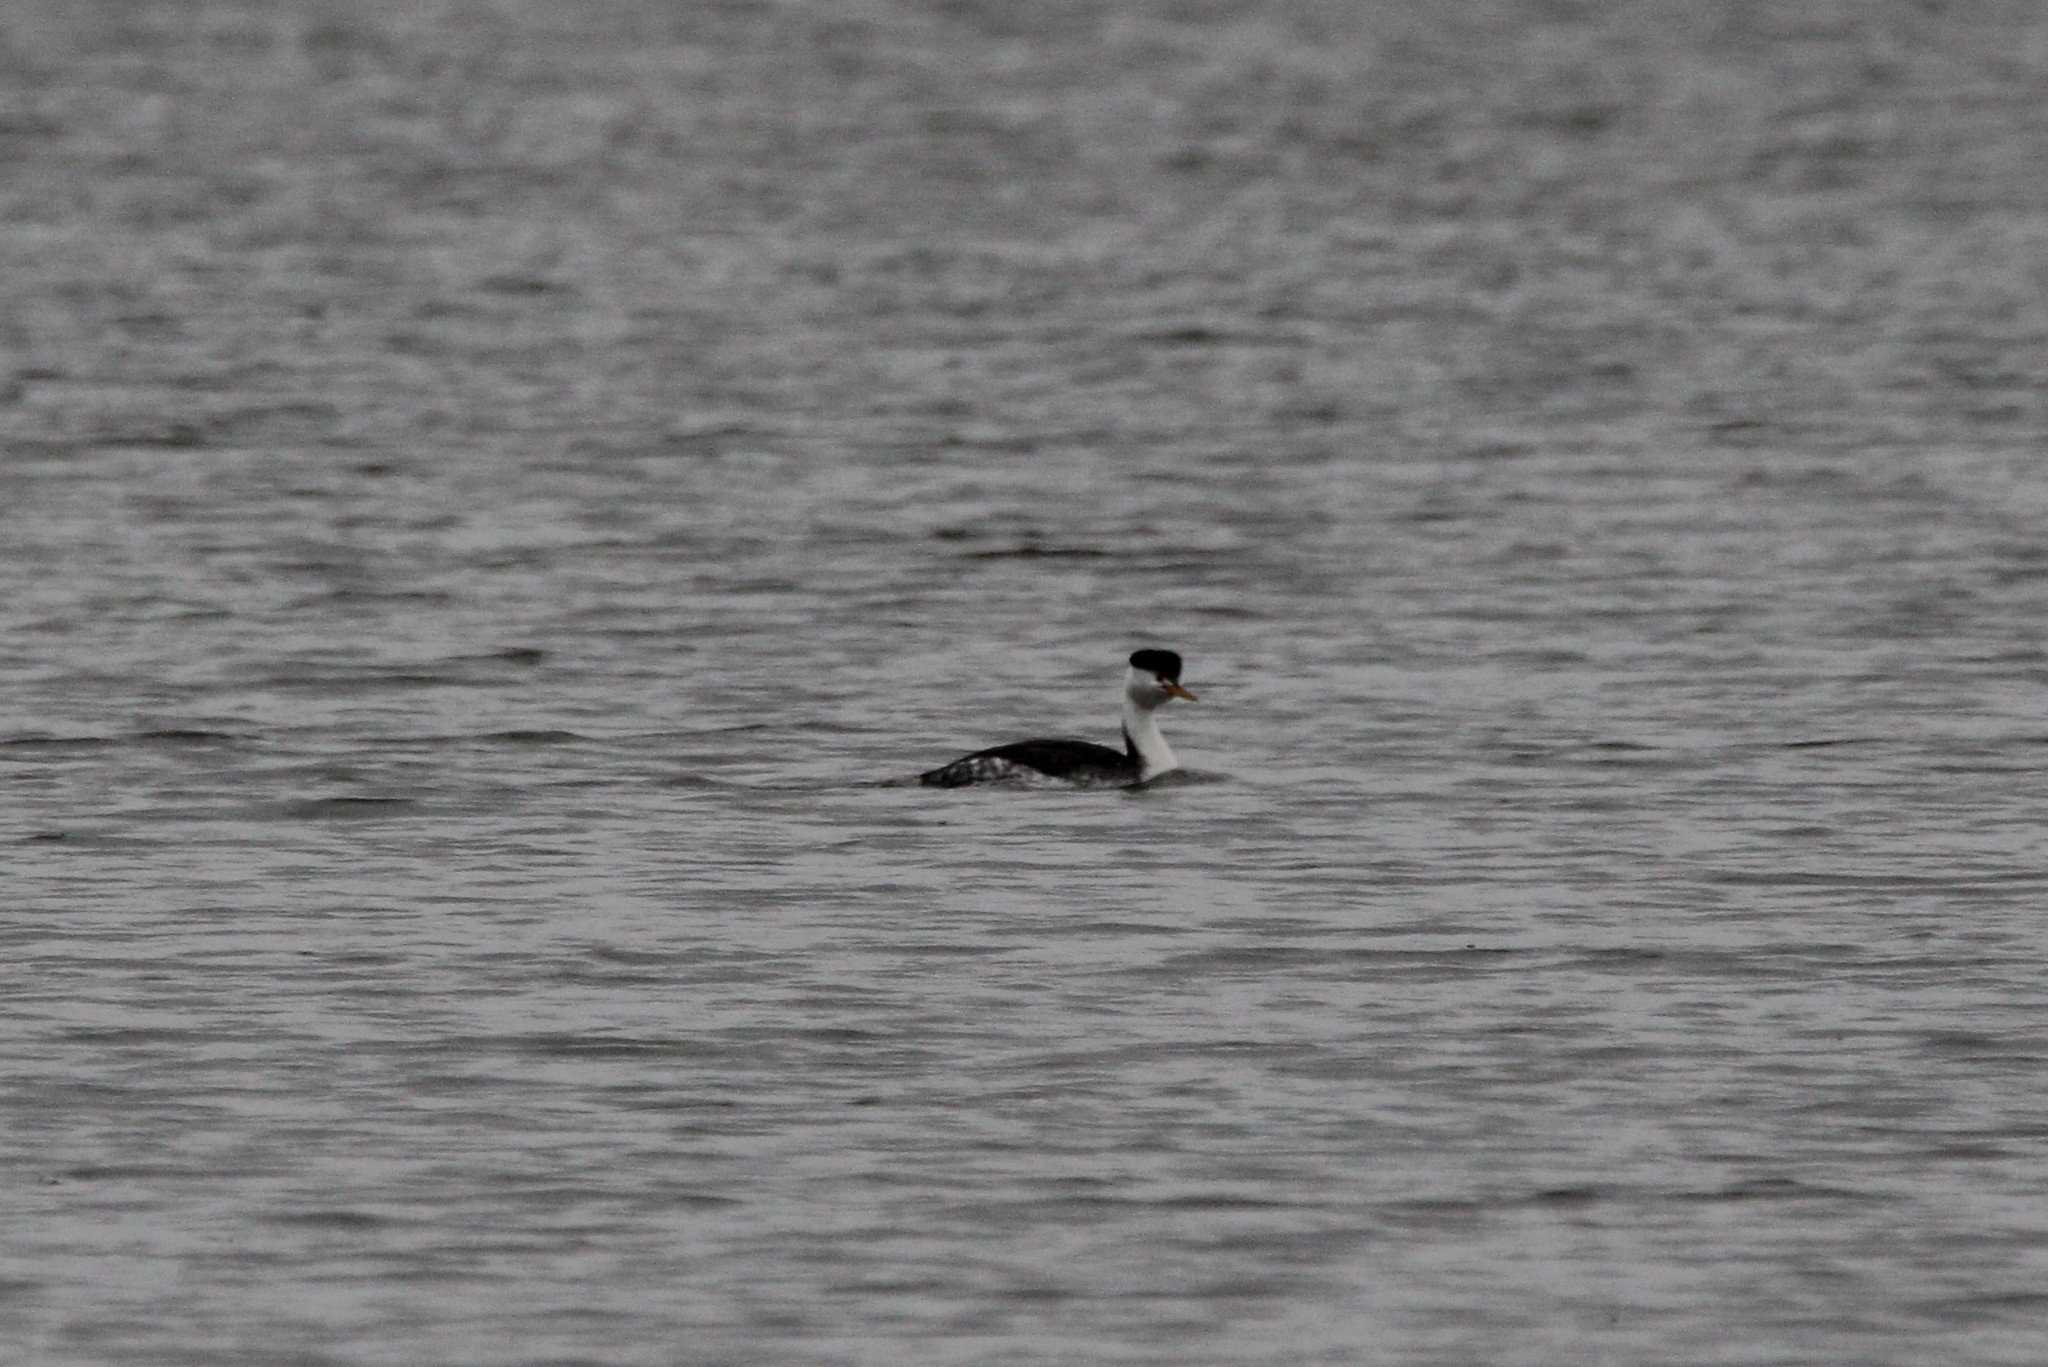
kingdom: Animalia
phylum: Chordata
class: Aves
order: Podicipediformes
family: Podicipedidae
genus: Aechmophorus
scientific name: Aechmophorus clarkii
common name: Clark's grebe
